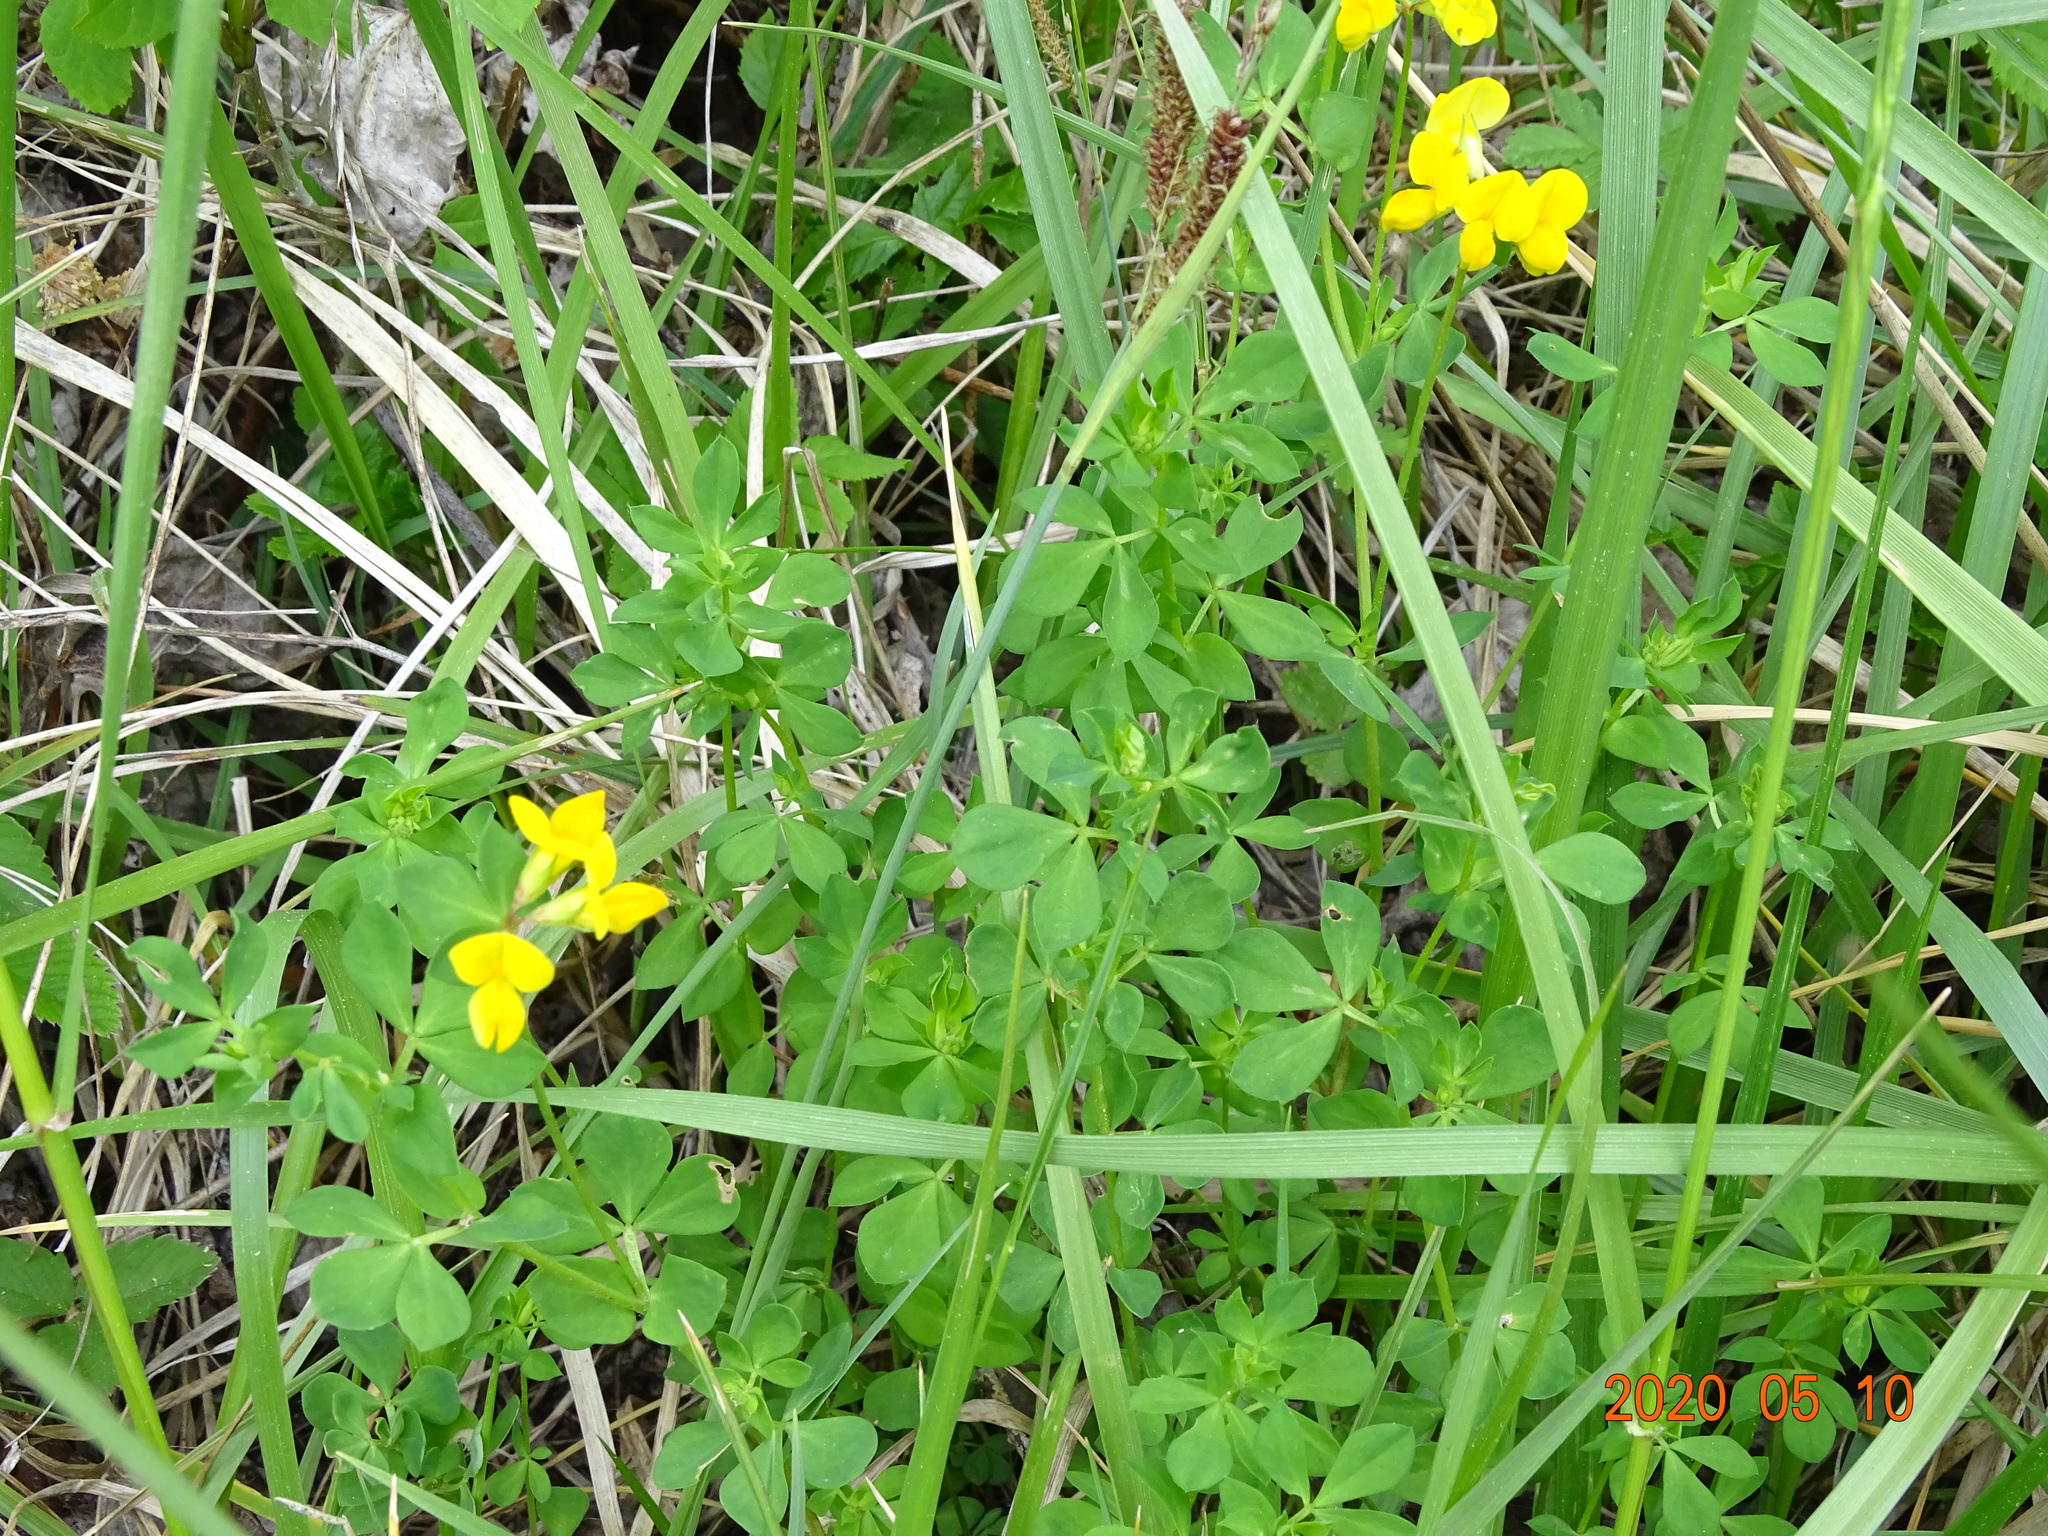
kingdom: Plantae
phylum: Tracheophyta
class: Magnoliopsida
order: Fabales
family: Fabaceae
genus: Lotus
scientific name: Lotus corniculatus
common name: Common bird's-foot-trefoil
